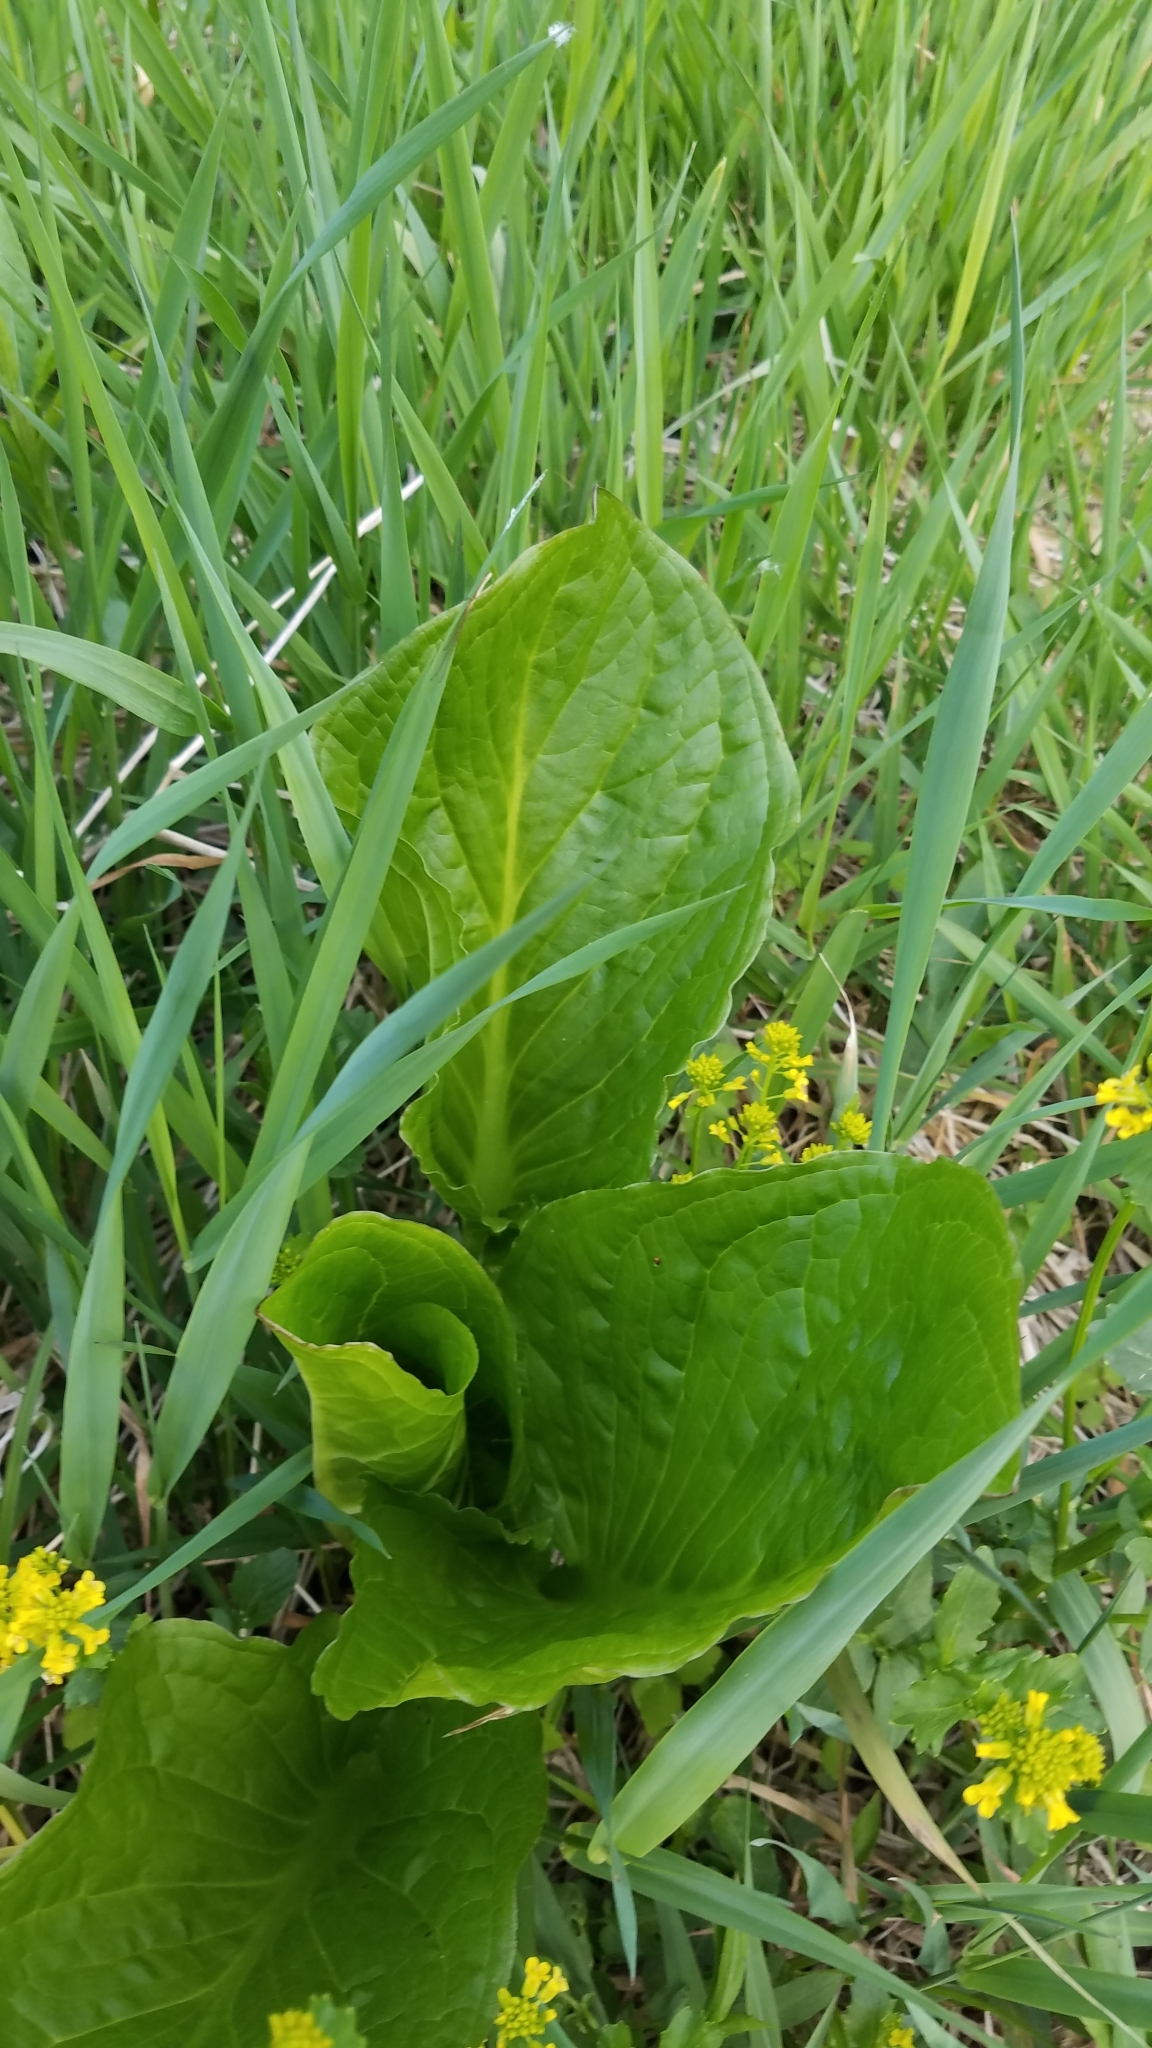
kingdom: Plantae
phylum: Tracheophyta
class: Liliopsida
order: Alismatales
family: Araceae
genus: Symplocarpus
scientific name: Symplocarpus foetidus
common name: Eastern skunk cabbage
